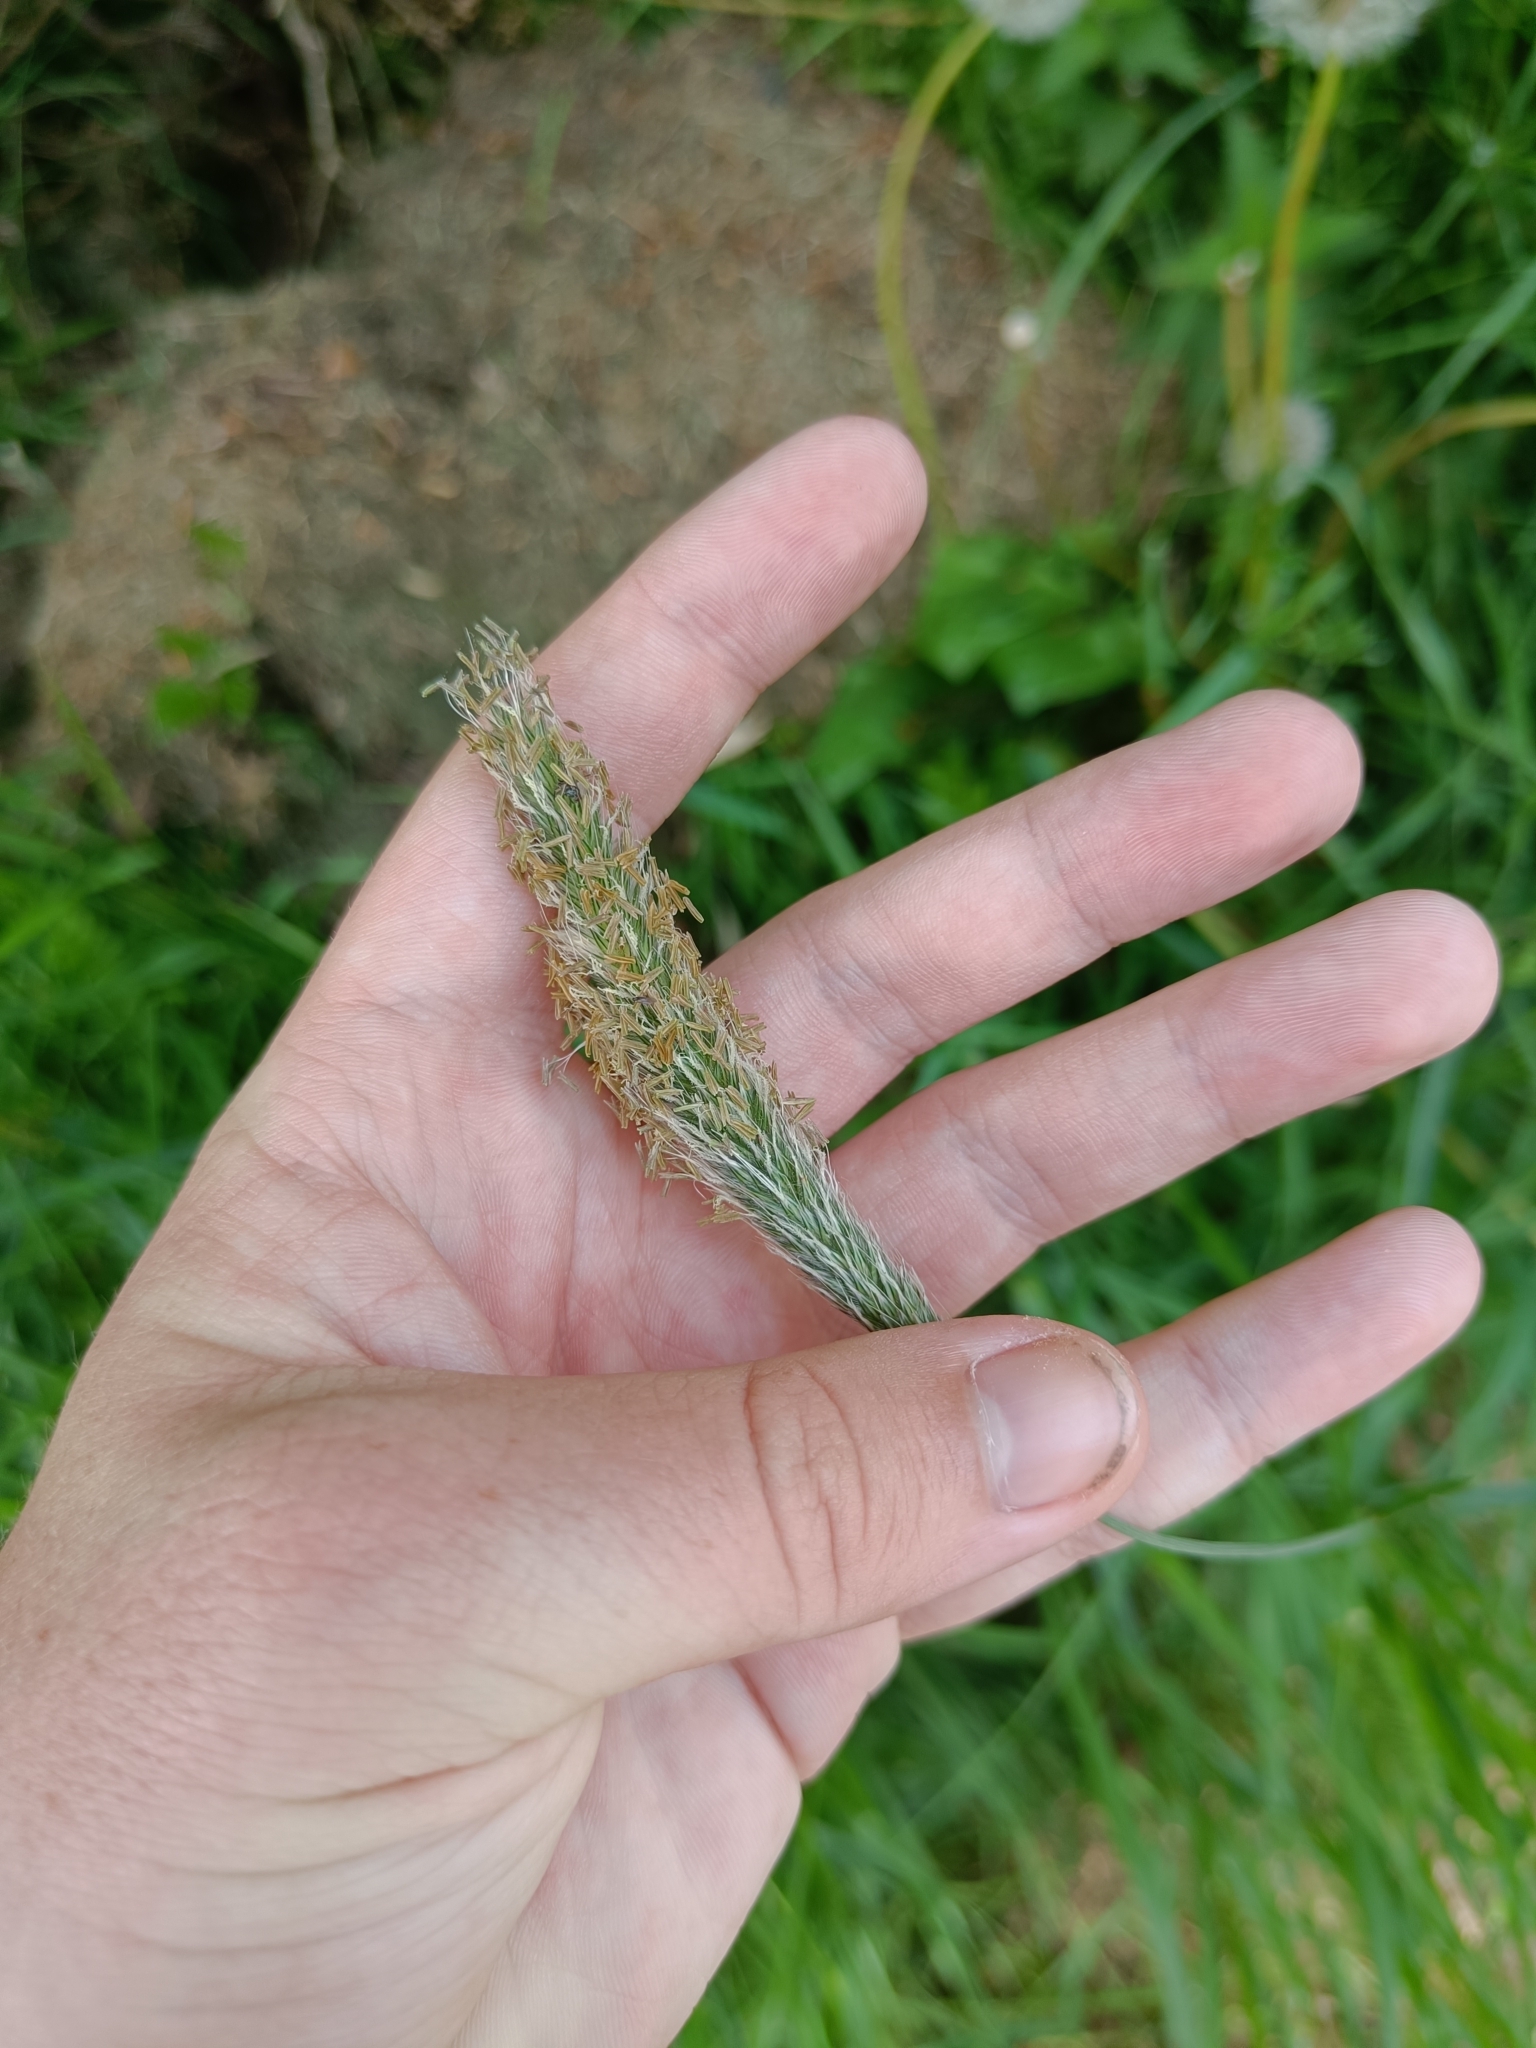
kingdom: Plantae
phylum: Tracheophyta
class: Liliopsida
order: Poales
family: Poaceae
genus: Alopecurus
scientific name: Alopecurus pratensis
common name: Meadow foxtail
